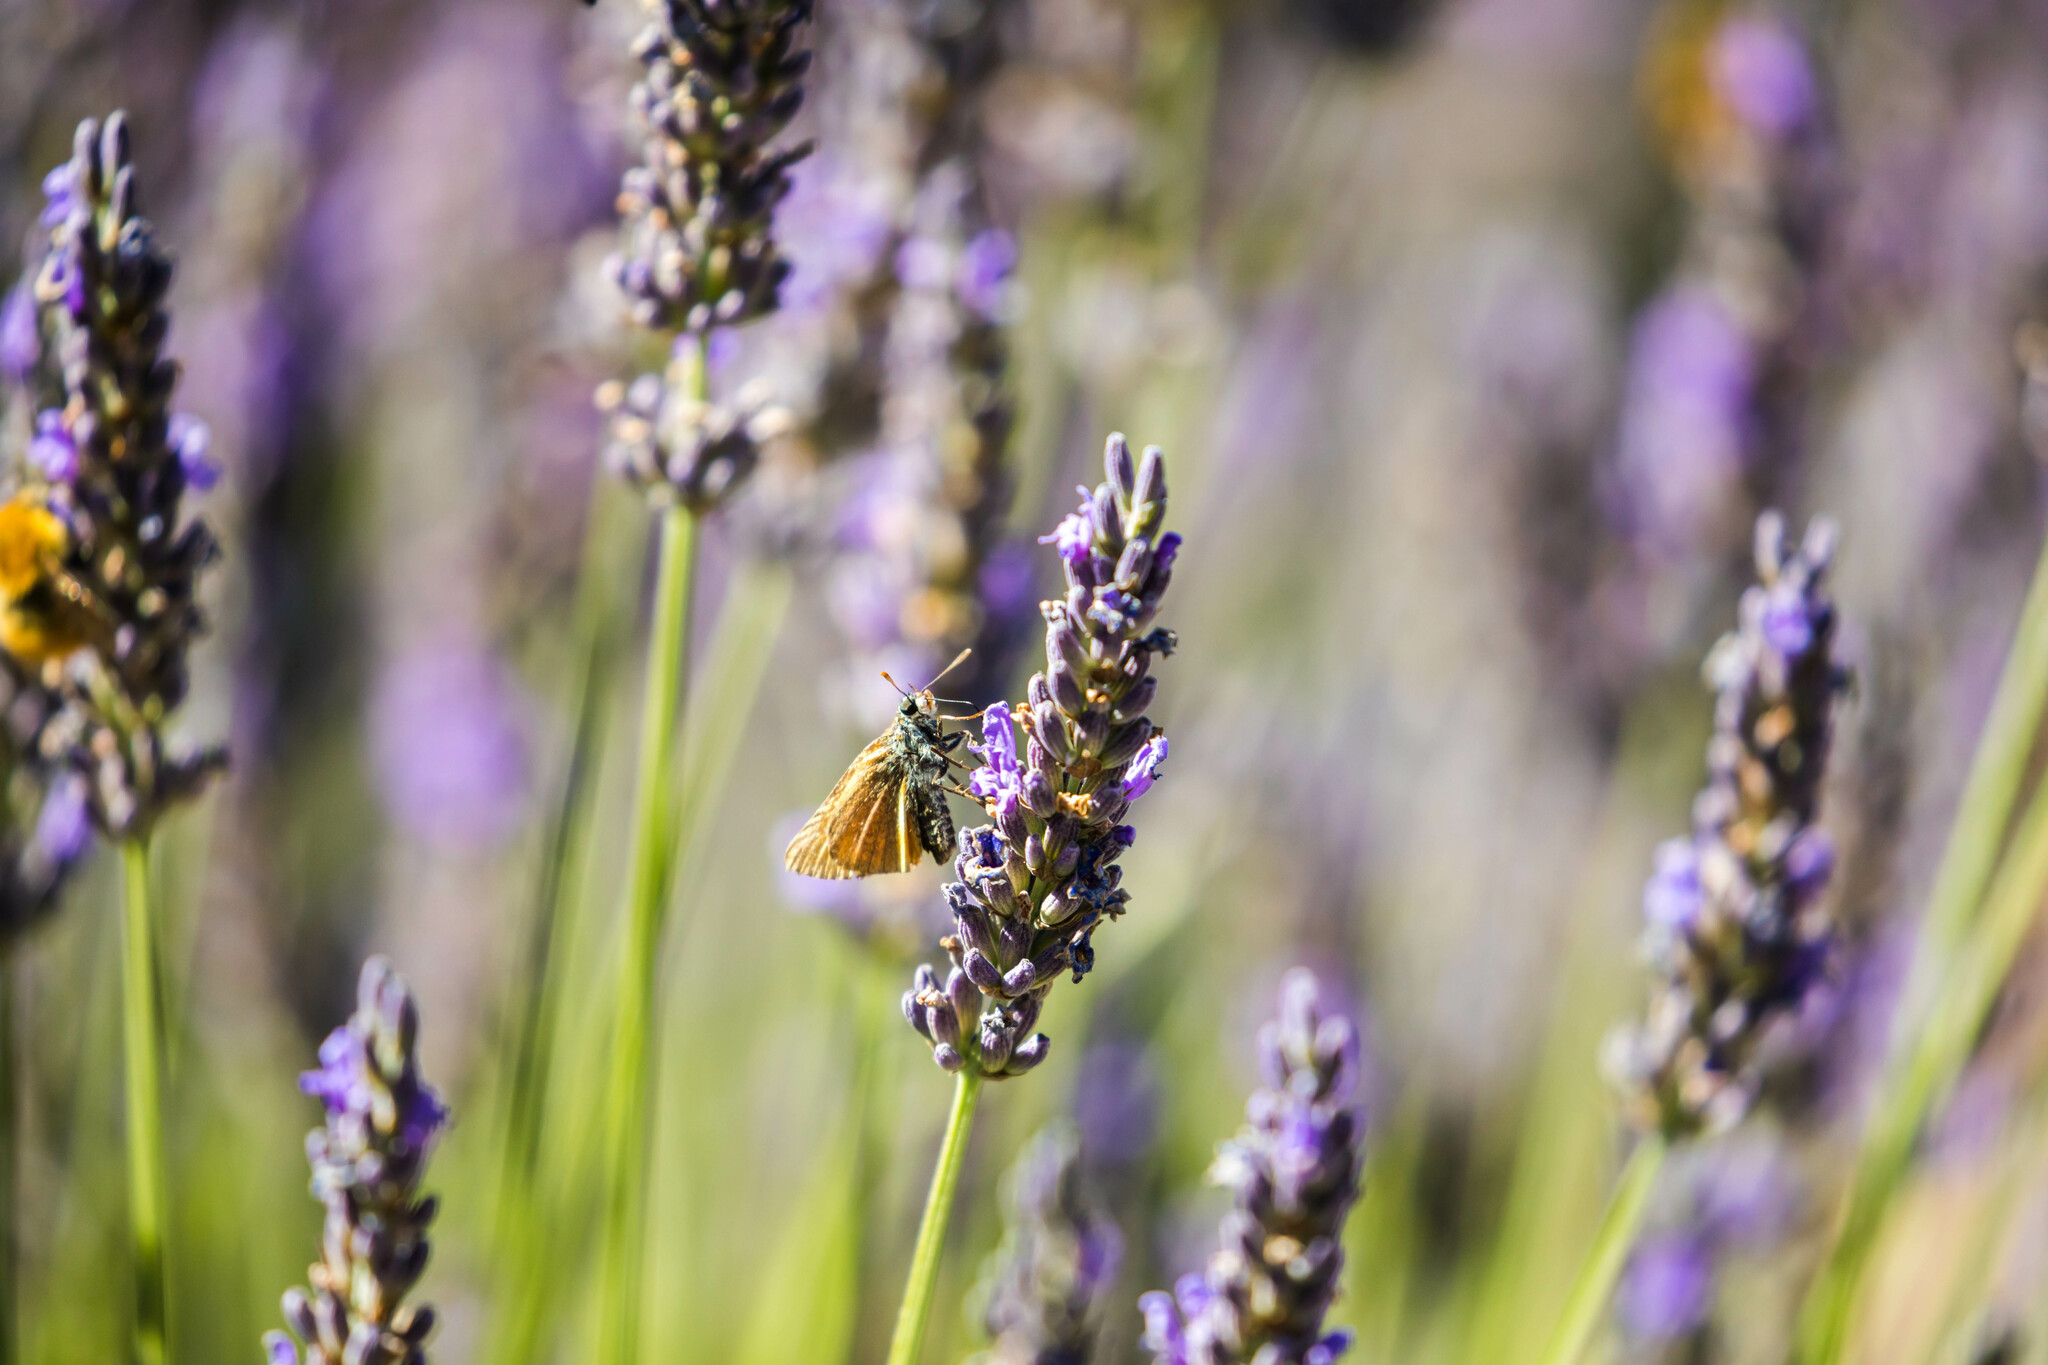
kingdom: Animalia
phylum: Arthropoda
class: Insecta
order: Lepidoptera
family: Hesperiidae
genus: Thymelicus
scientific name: Thymelicus sylvestris
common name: Small skipper
